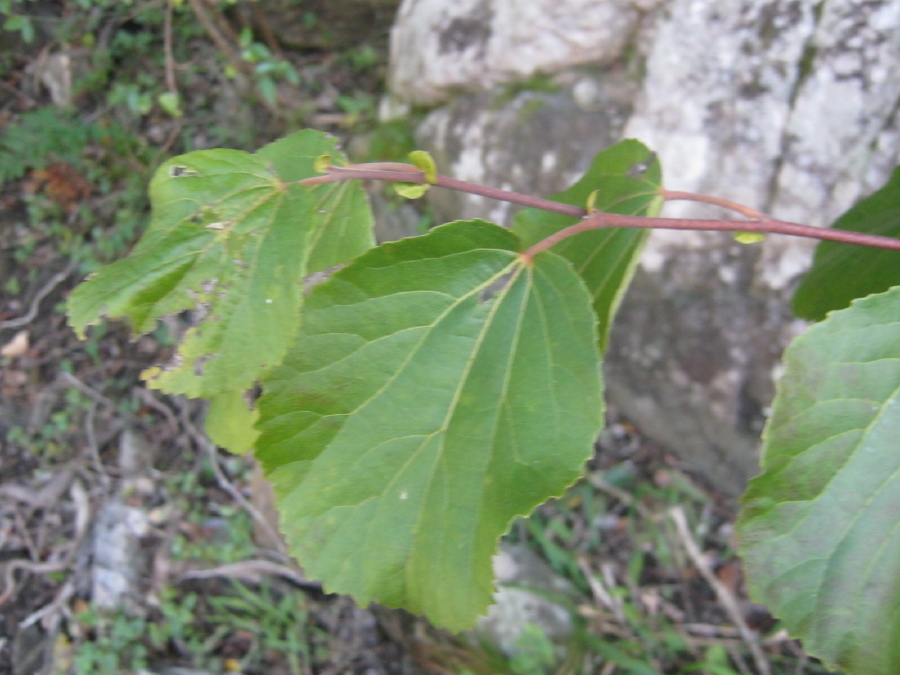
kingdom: Plantae
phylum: Tracheophyta
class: Magnoliopsida
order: Malpighiales
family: Salicaceae
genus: Trimeria
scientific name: Trimeria grandifolia
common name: Wild mulberry
